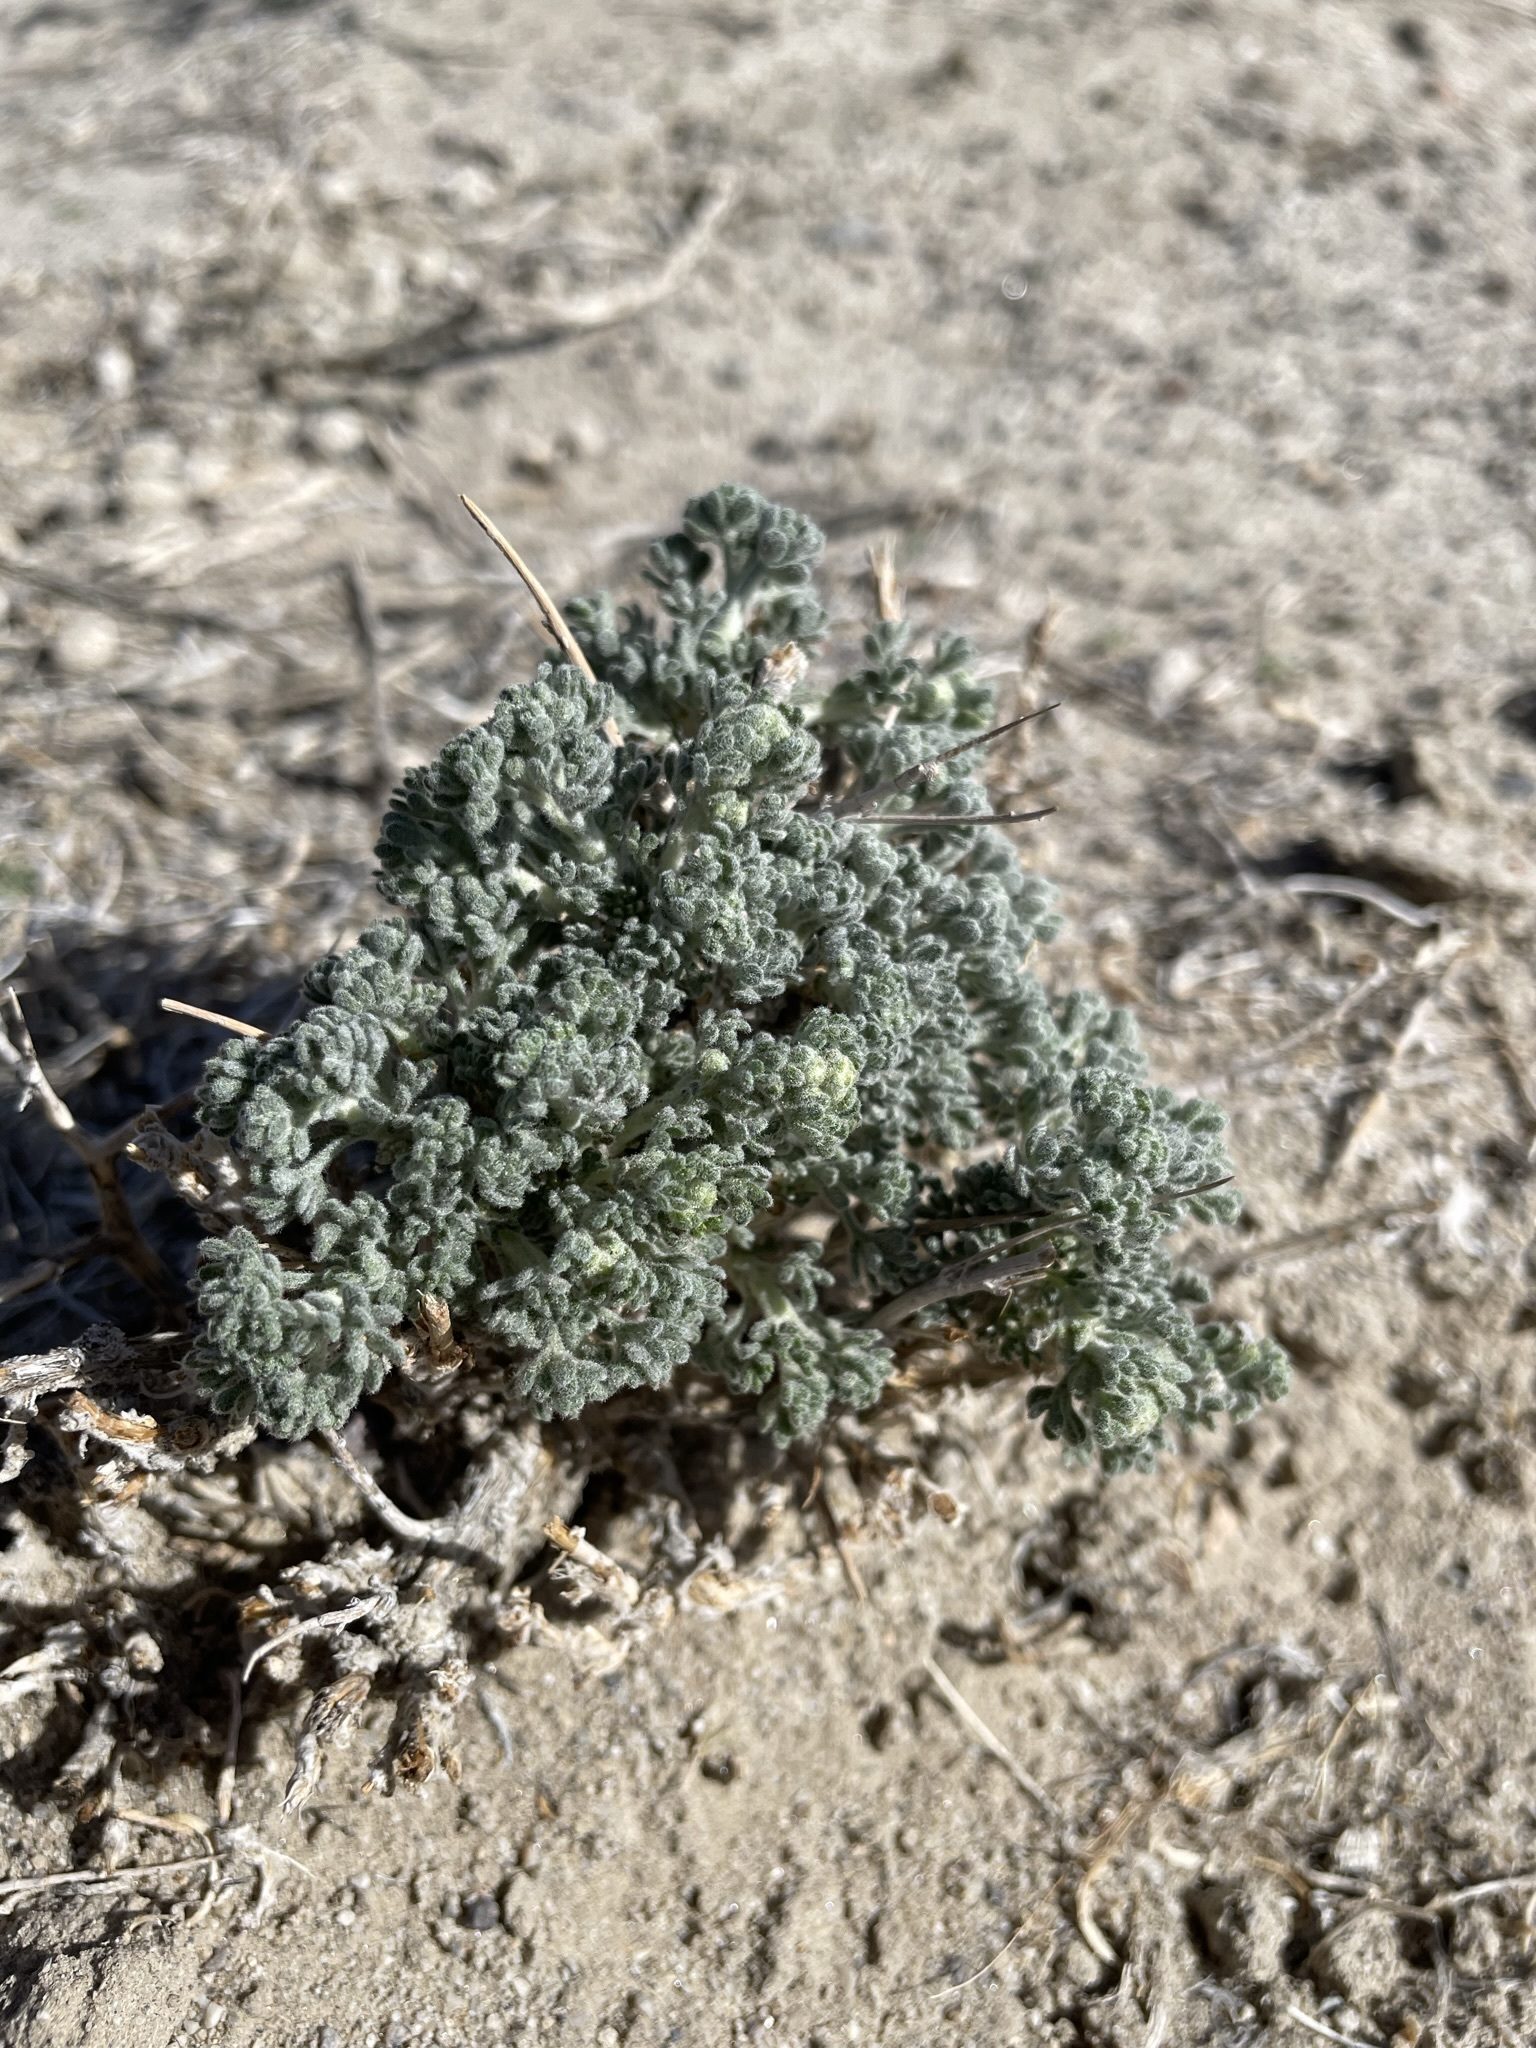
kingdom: Plantae
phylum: Tracheophyta
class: Magnoliopsida
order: Asterales
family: Asteraceae
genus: Artemisia
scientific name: Artemisia spinescens
